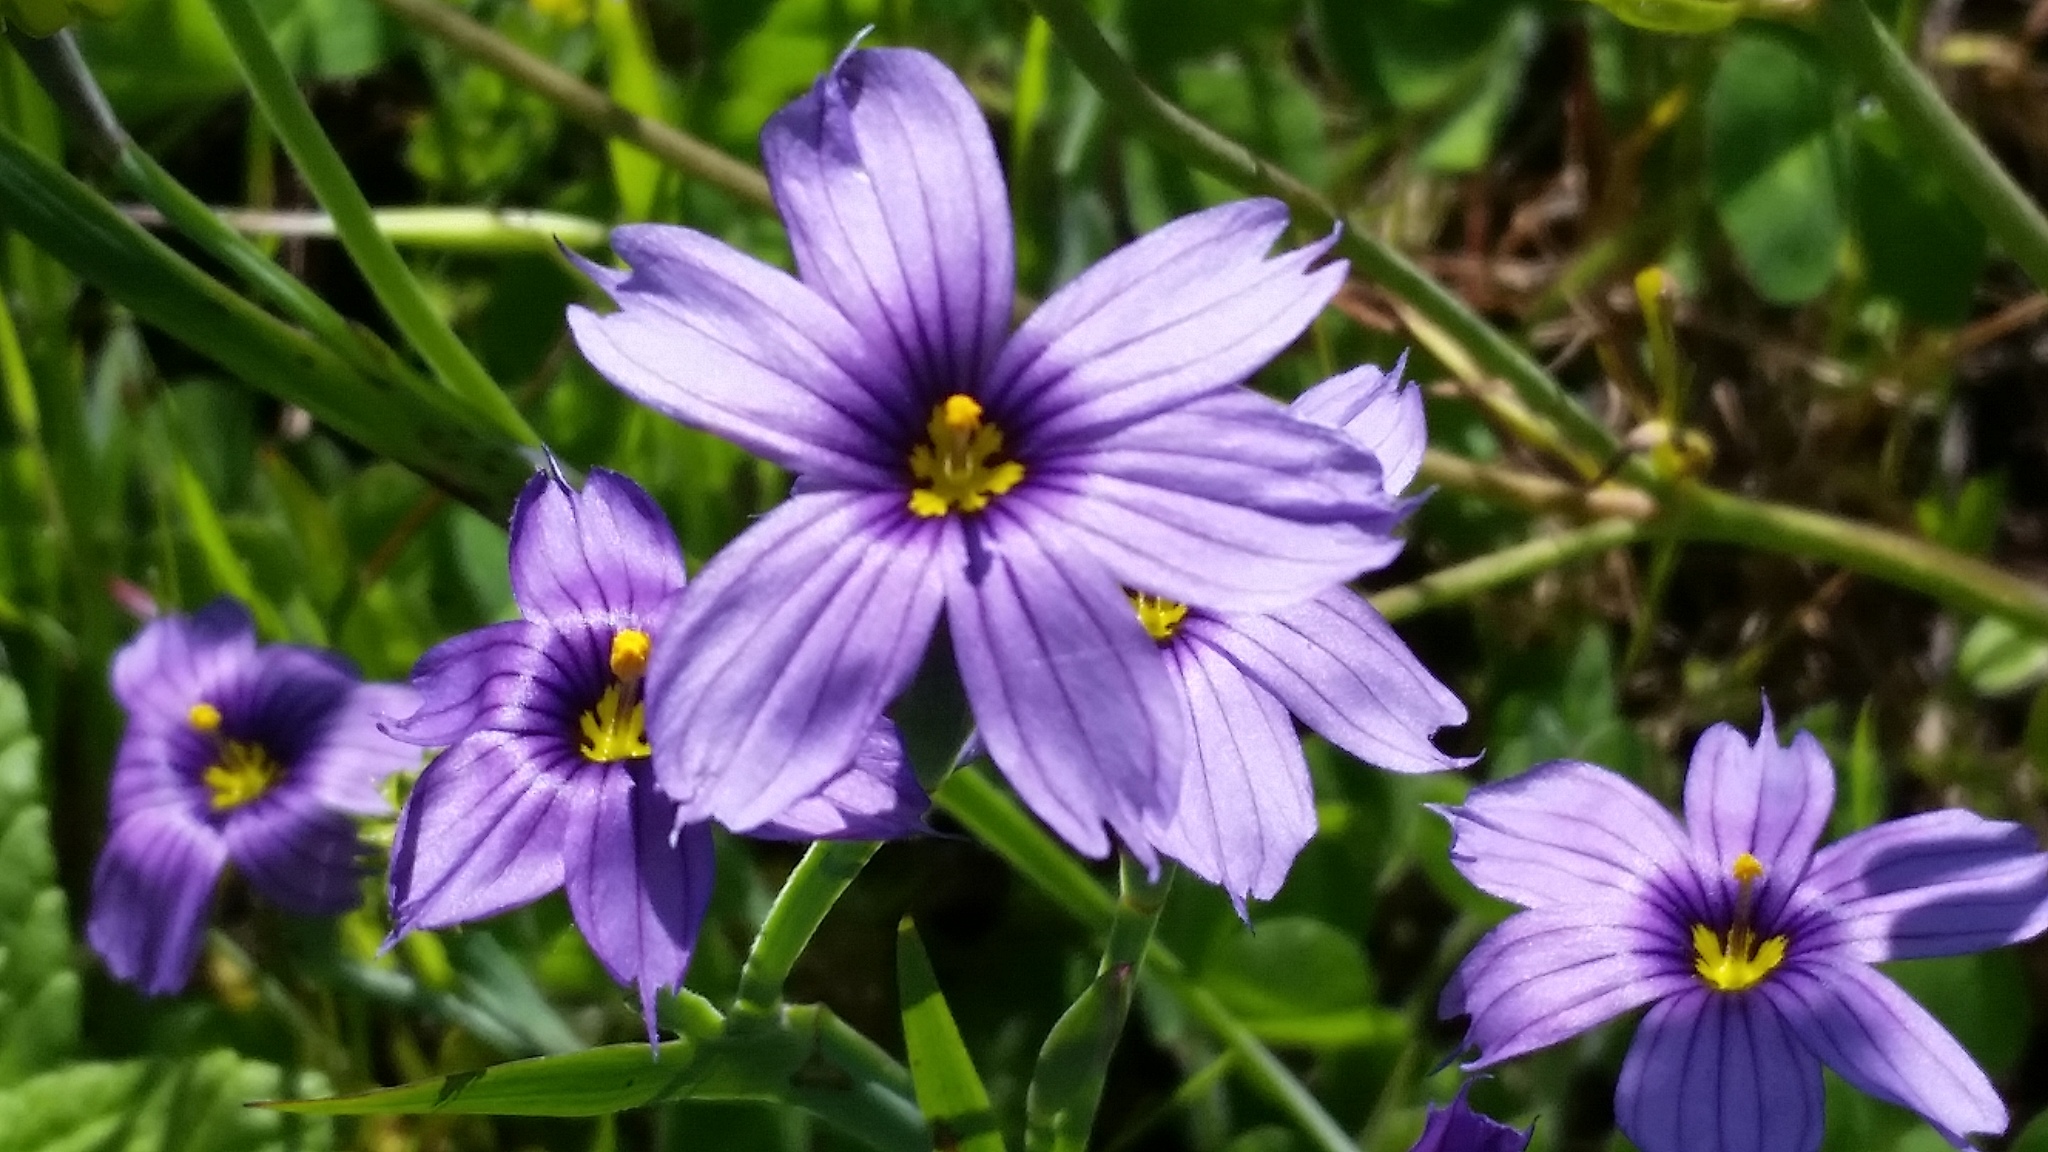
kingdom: Plantae
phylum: Tracheophyta
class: Liliopsida
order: Asparagales
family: Iridaceae
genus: Sisyrinchium
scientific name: Sisyrinchium bellum
